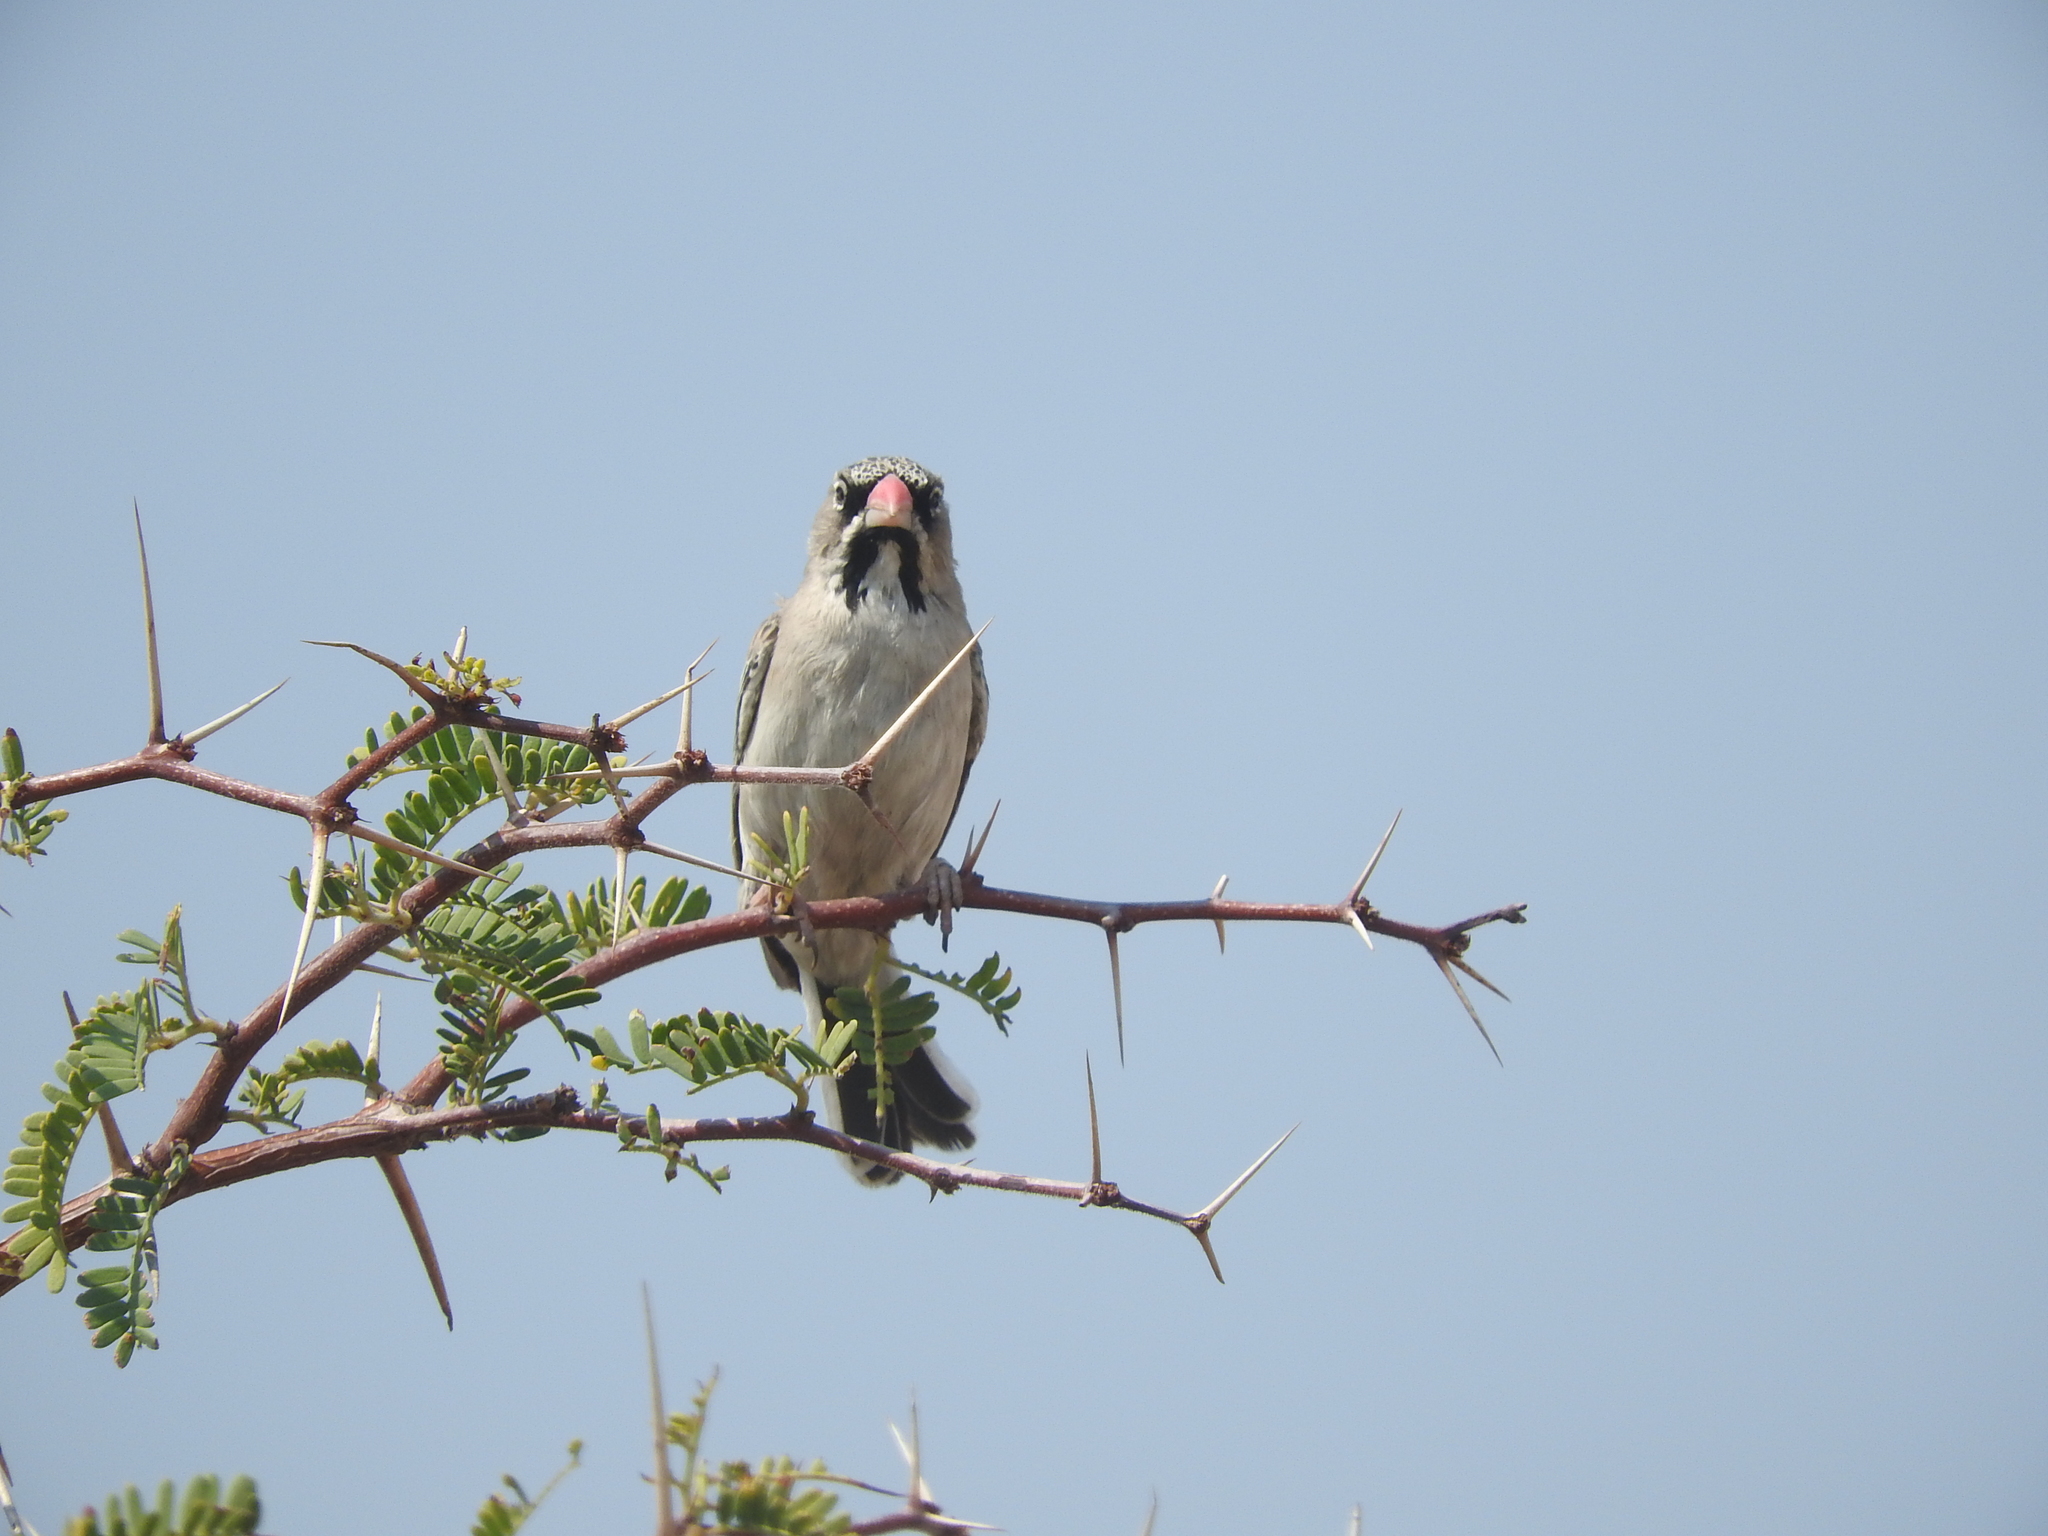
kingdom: Animalia
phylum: Chordata
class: Aves
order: Passeriformes
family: Ploceidae
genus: Sporopipes
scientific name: Sporopipes squamifrons
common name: Scaly-feathered weaver
